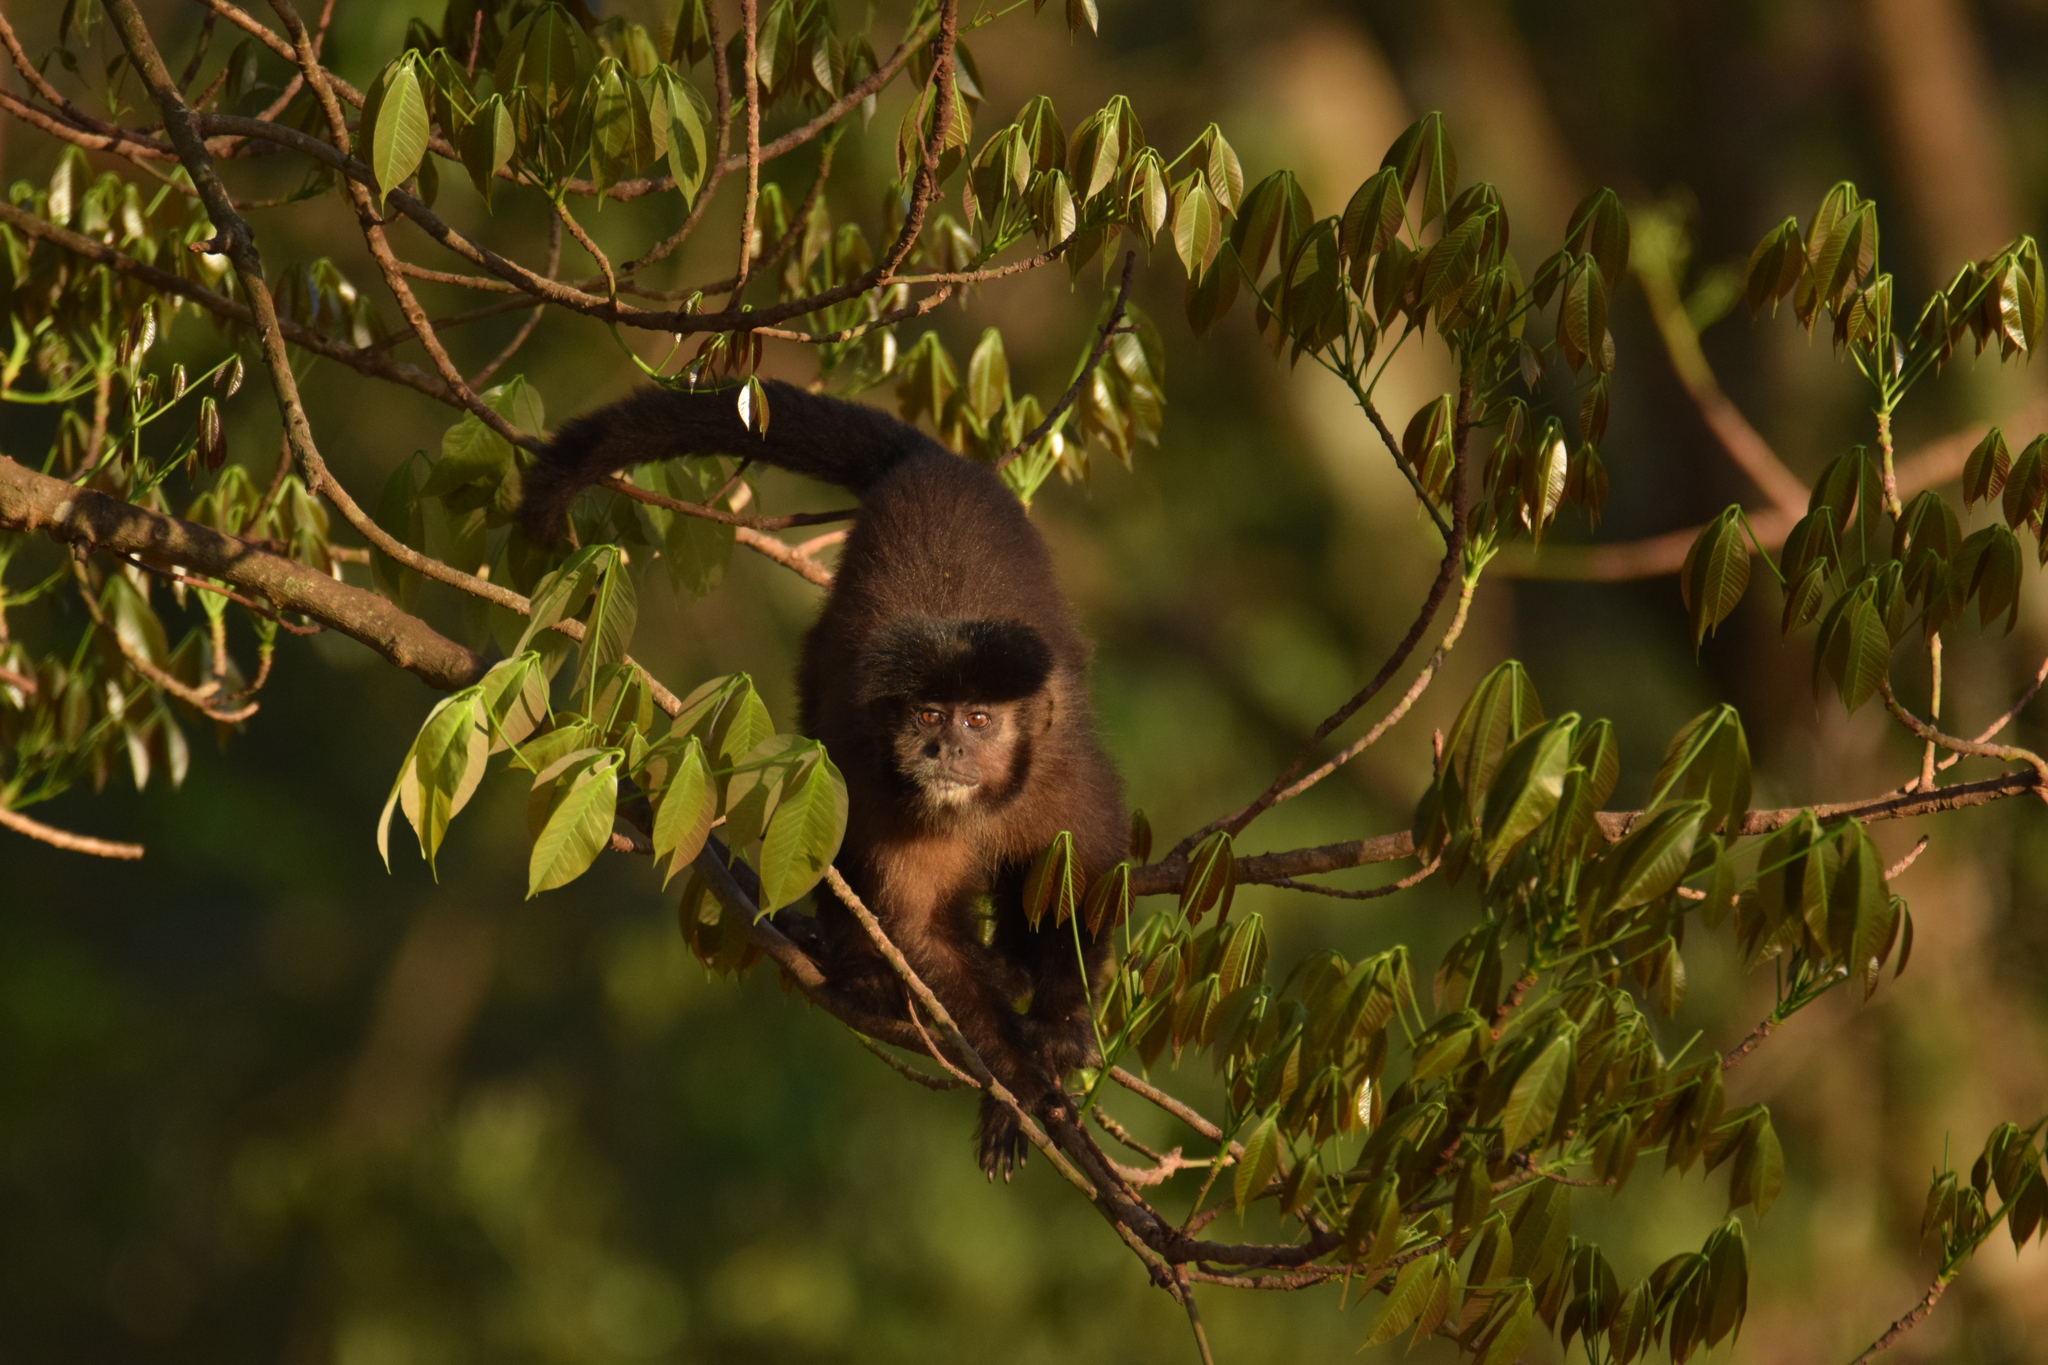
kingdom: Animalia
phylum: Chordata
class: Mammalia
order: Primates
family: Cebidae
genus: Sapajus
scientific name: Sapajus nigritus
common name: Black capuchin
